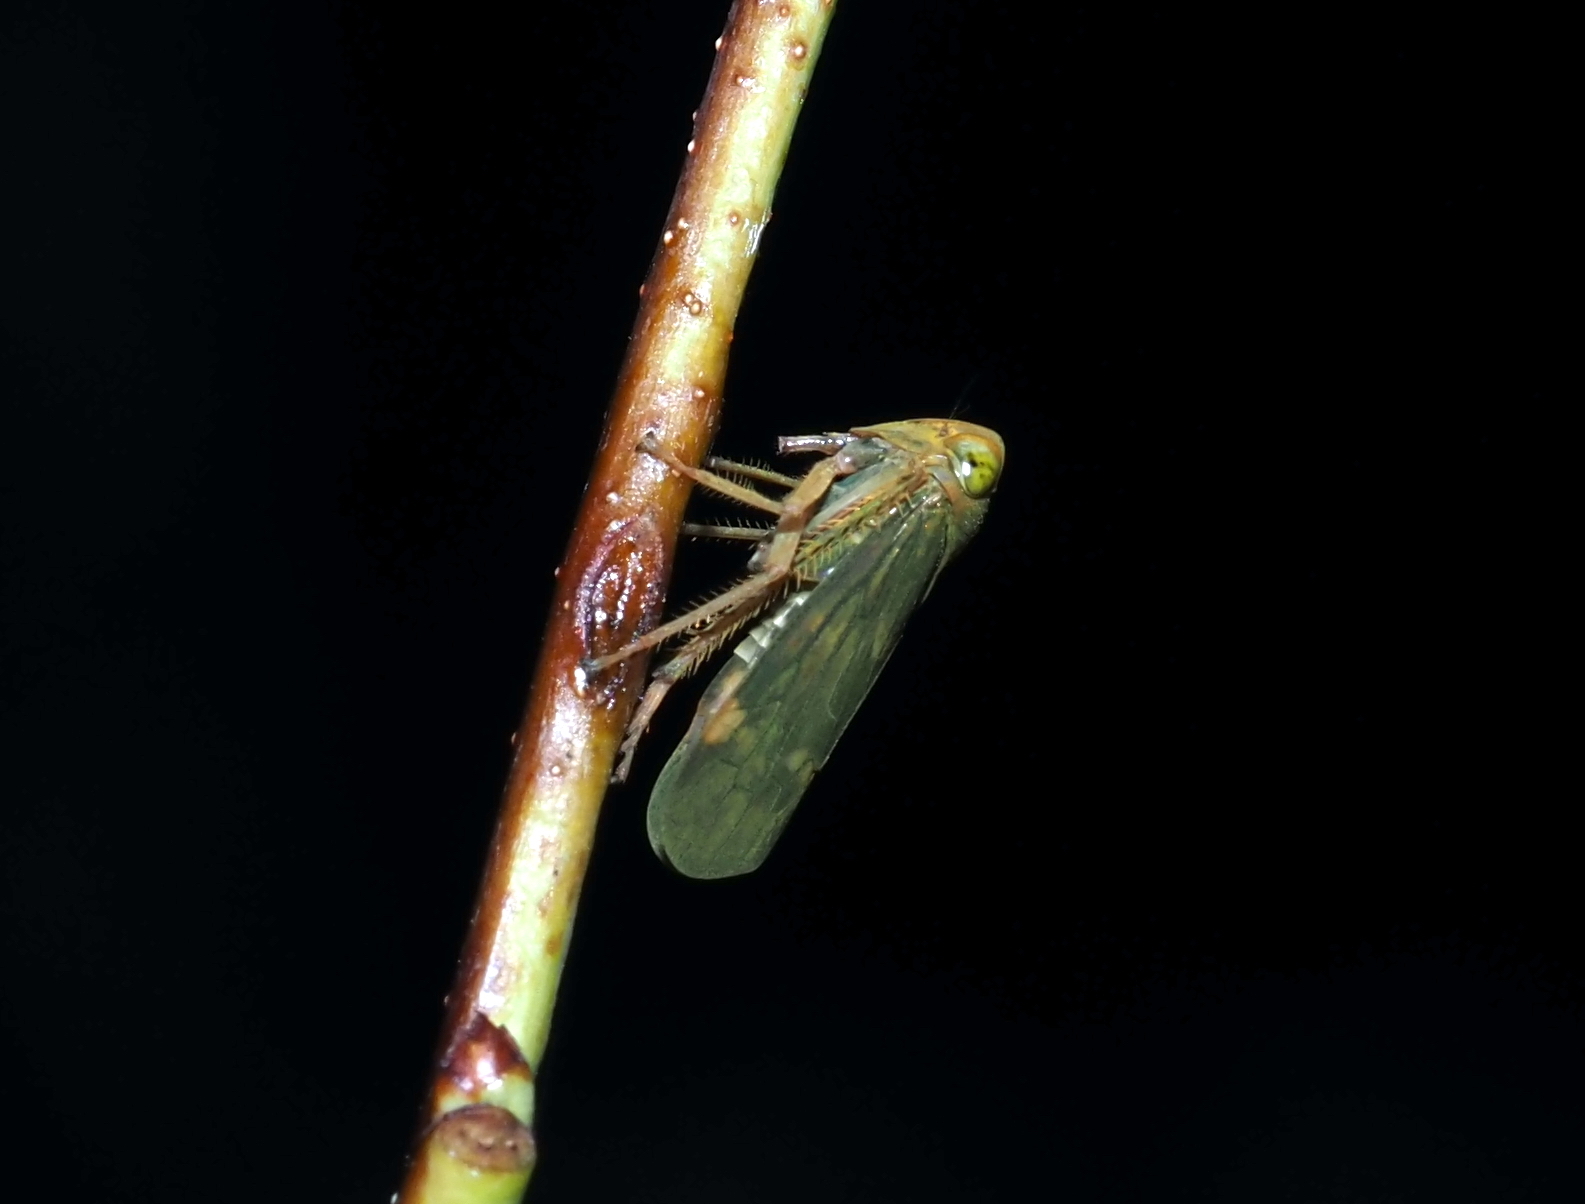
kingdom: Animalia
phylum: Arthropoda
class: Insecta
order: Hemiptera
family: Cicadellidae
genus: Jikradia
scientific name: Jikradia olitoria
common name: Coppery leafhopper
